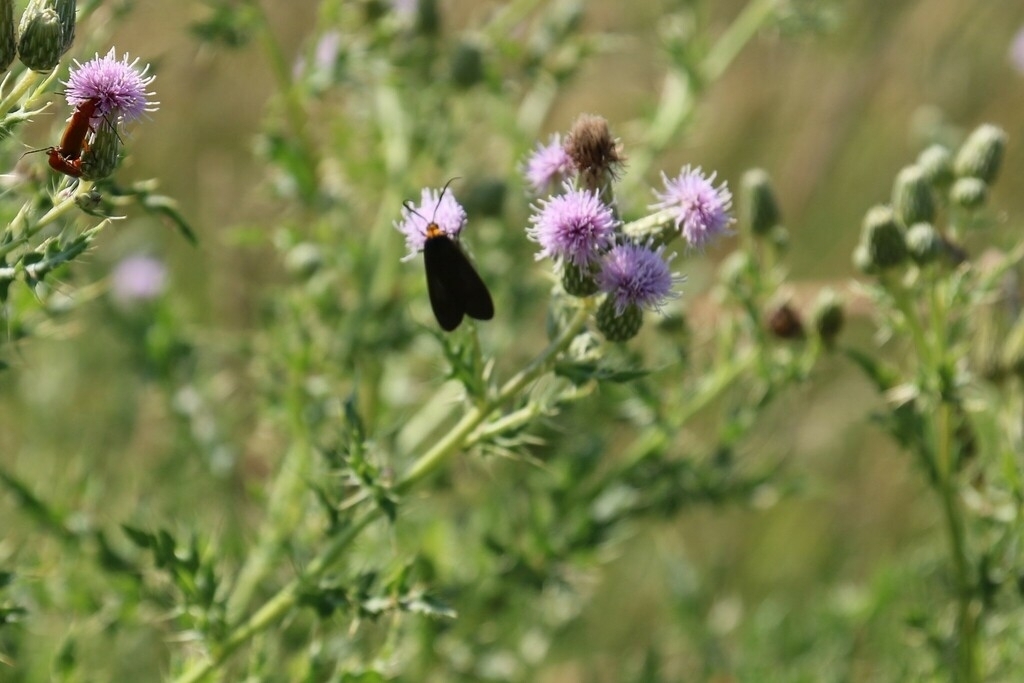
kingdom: Plantae
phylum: Tracheophyta
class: Magnoliopsida
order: Asterales
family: Asteraceae
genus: Cirsium
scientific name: Cirsium arvense
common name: Creeping thistle
